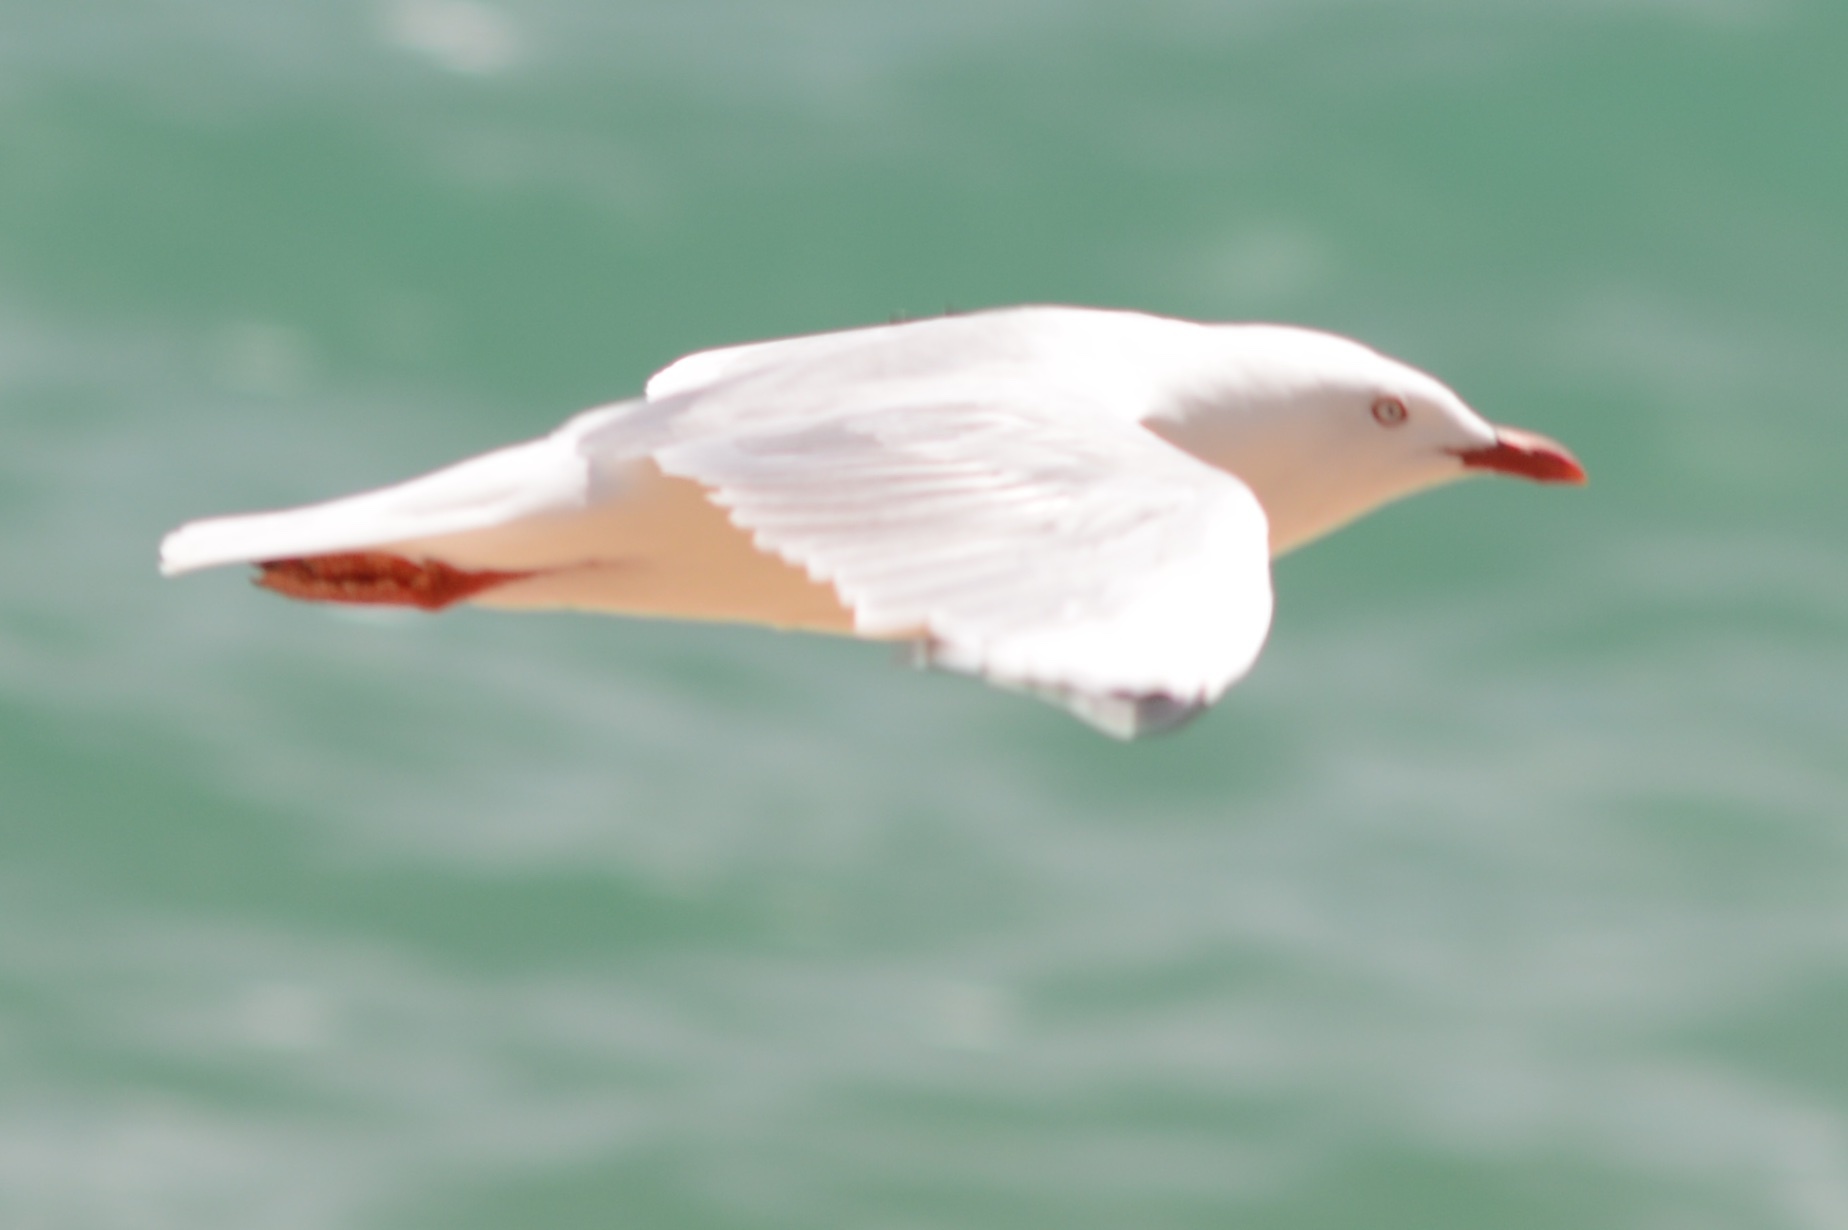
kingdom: Animalia
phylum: Chordata
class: Aves
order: Charadriiformes
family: Laridae
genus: Chroicocephalus
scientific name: Chroicocephalus novaehollandiae
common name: Silver gull
